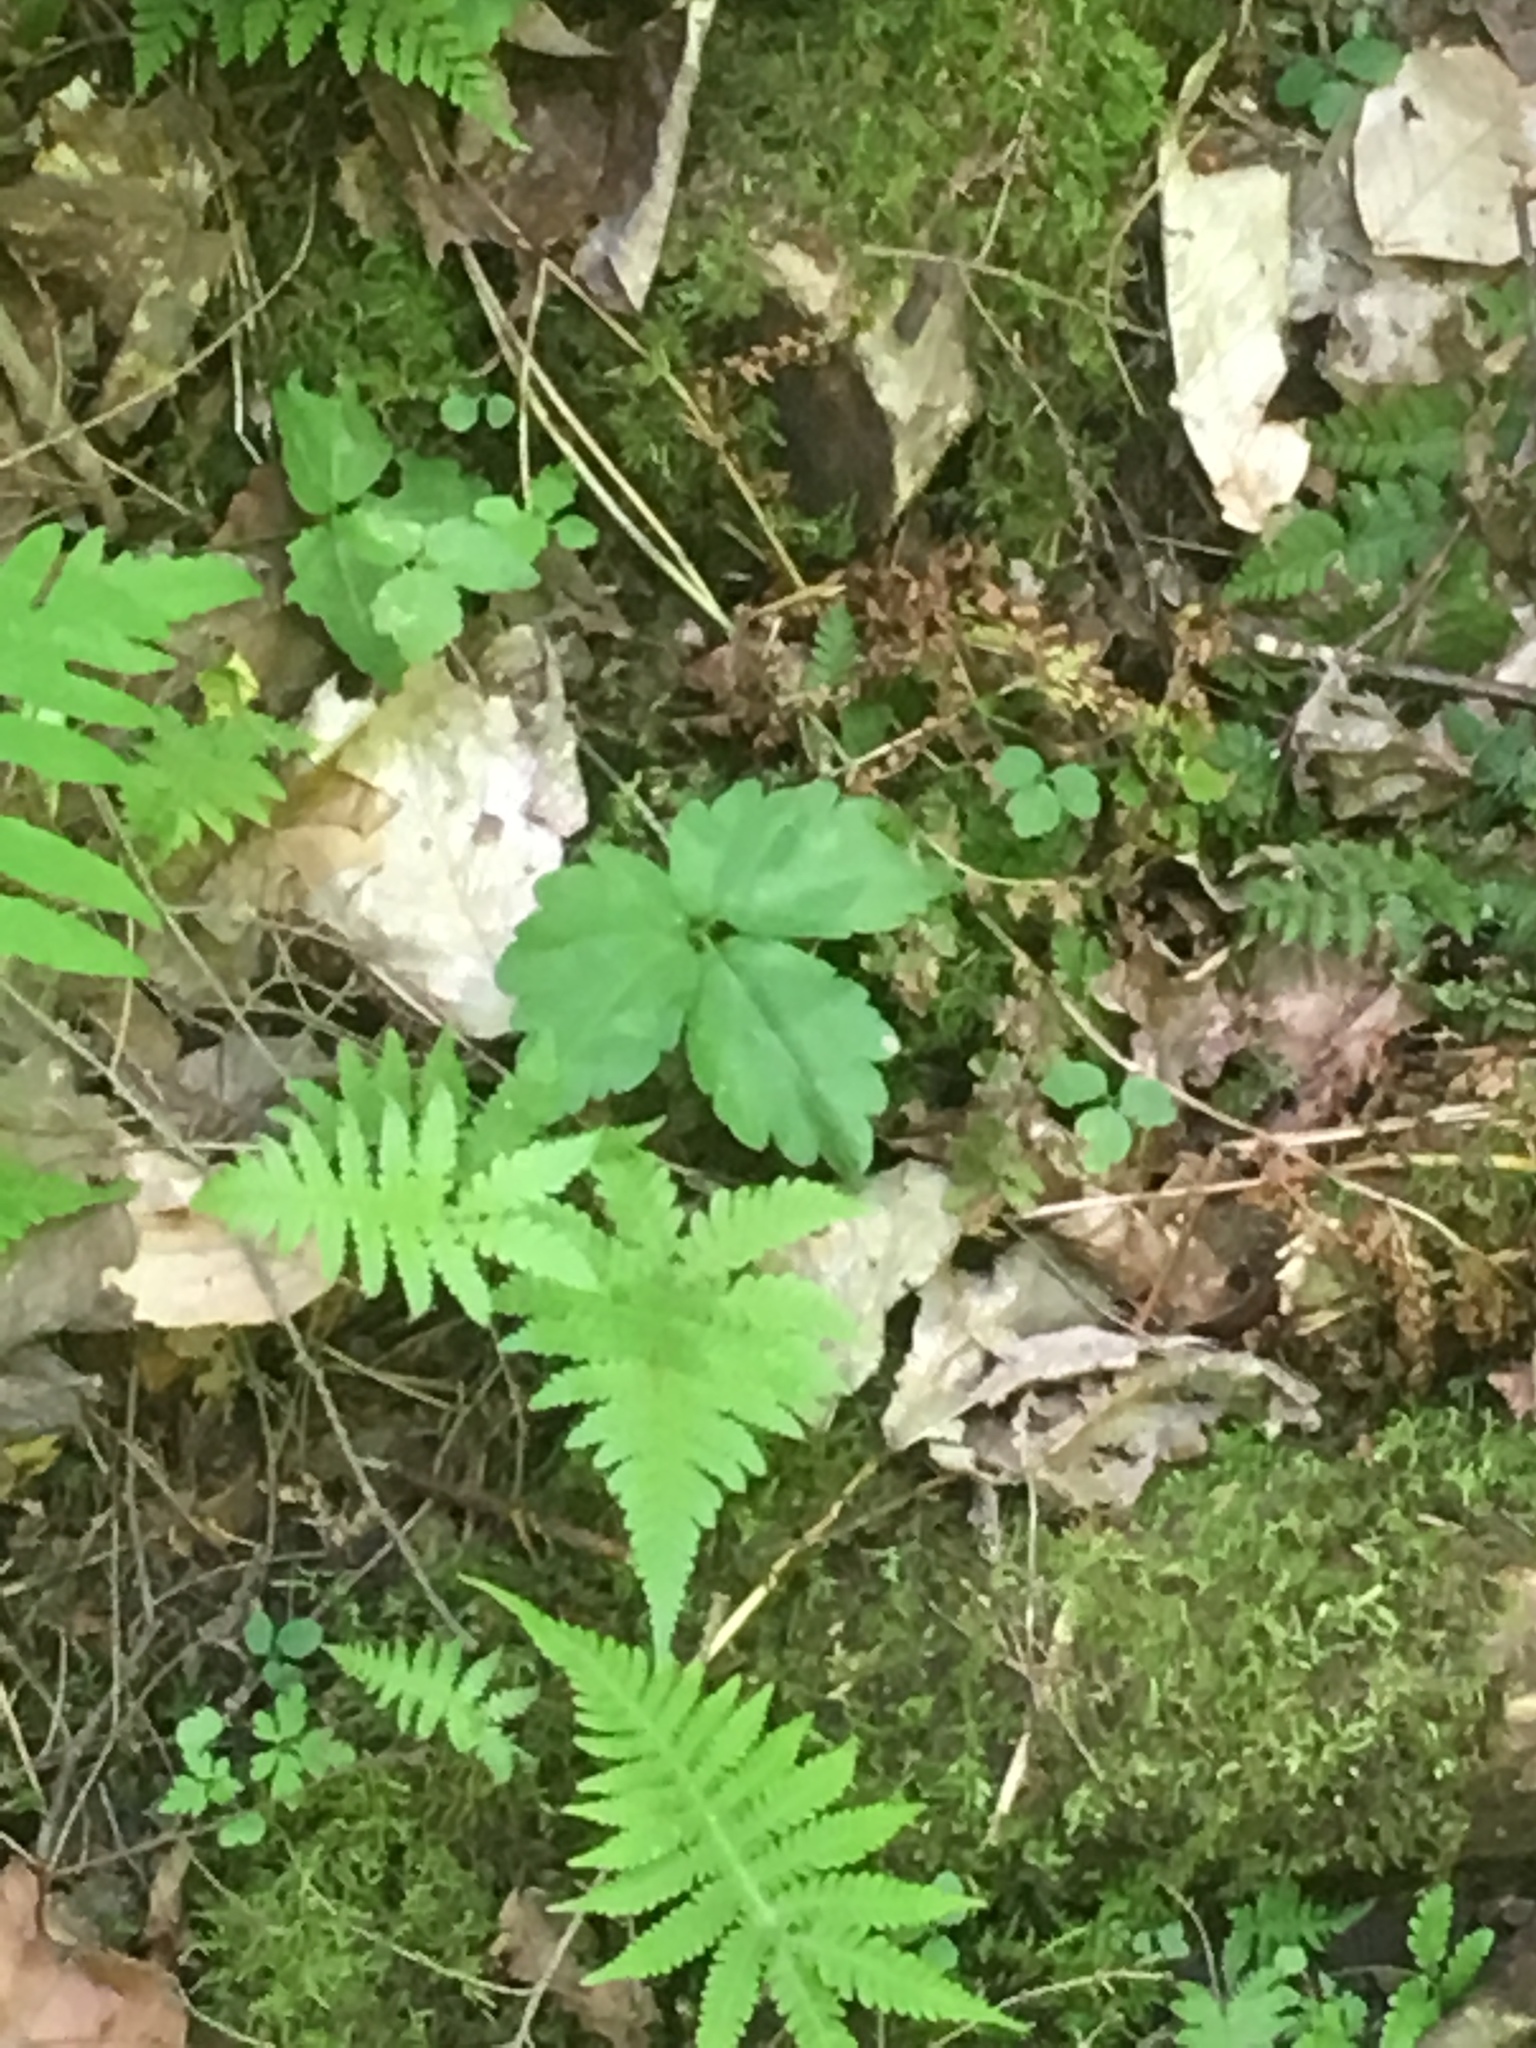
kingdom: Plantae
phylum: Tracheophyta
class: Magnoliopsida
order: Brassicales
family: Brassicaceae
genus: Cardamine
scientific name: Cardamine diphylla
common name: Broad-leaved toothwort
